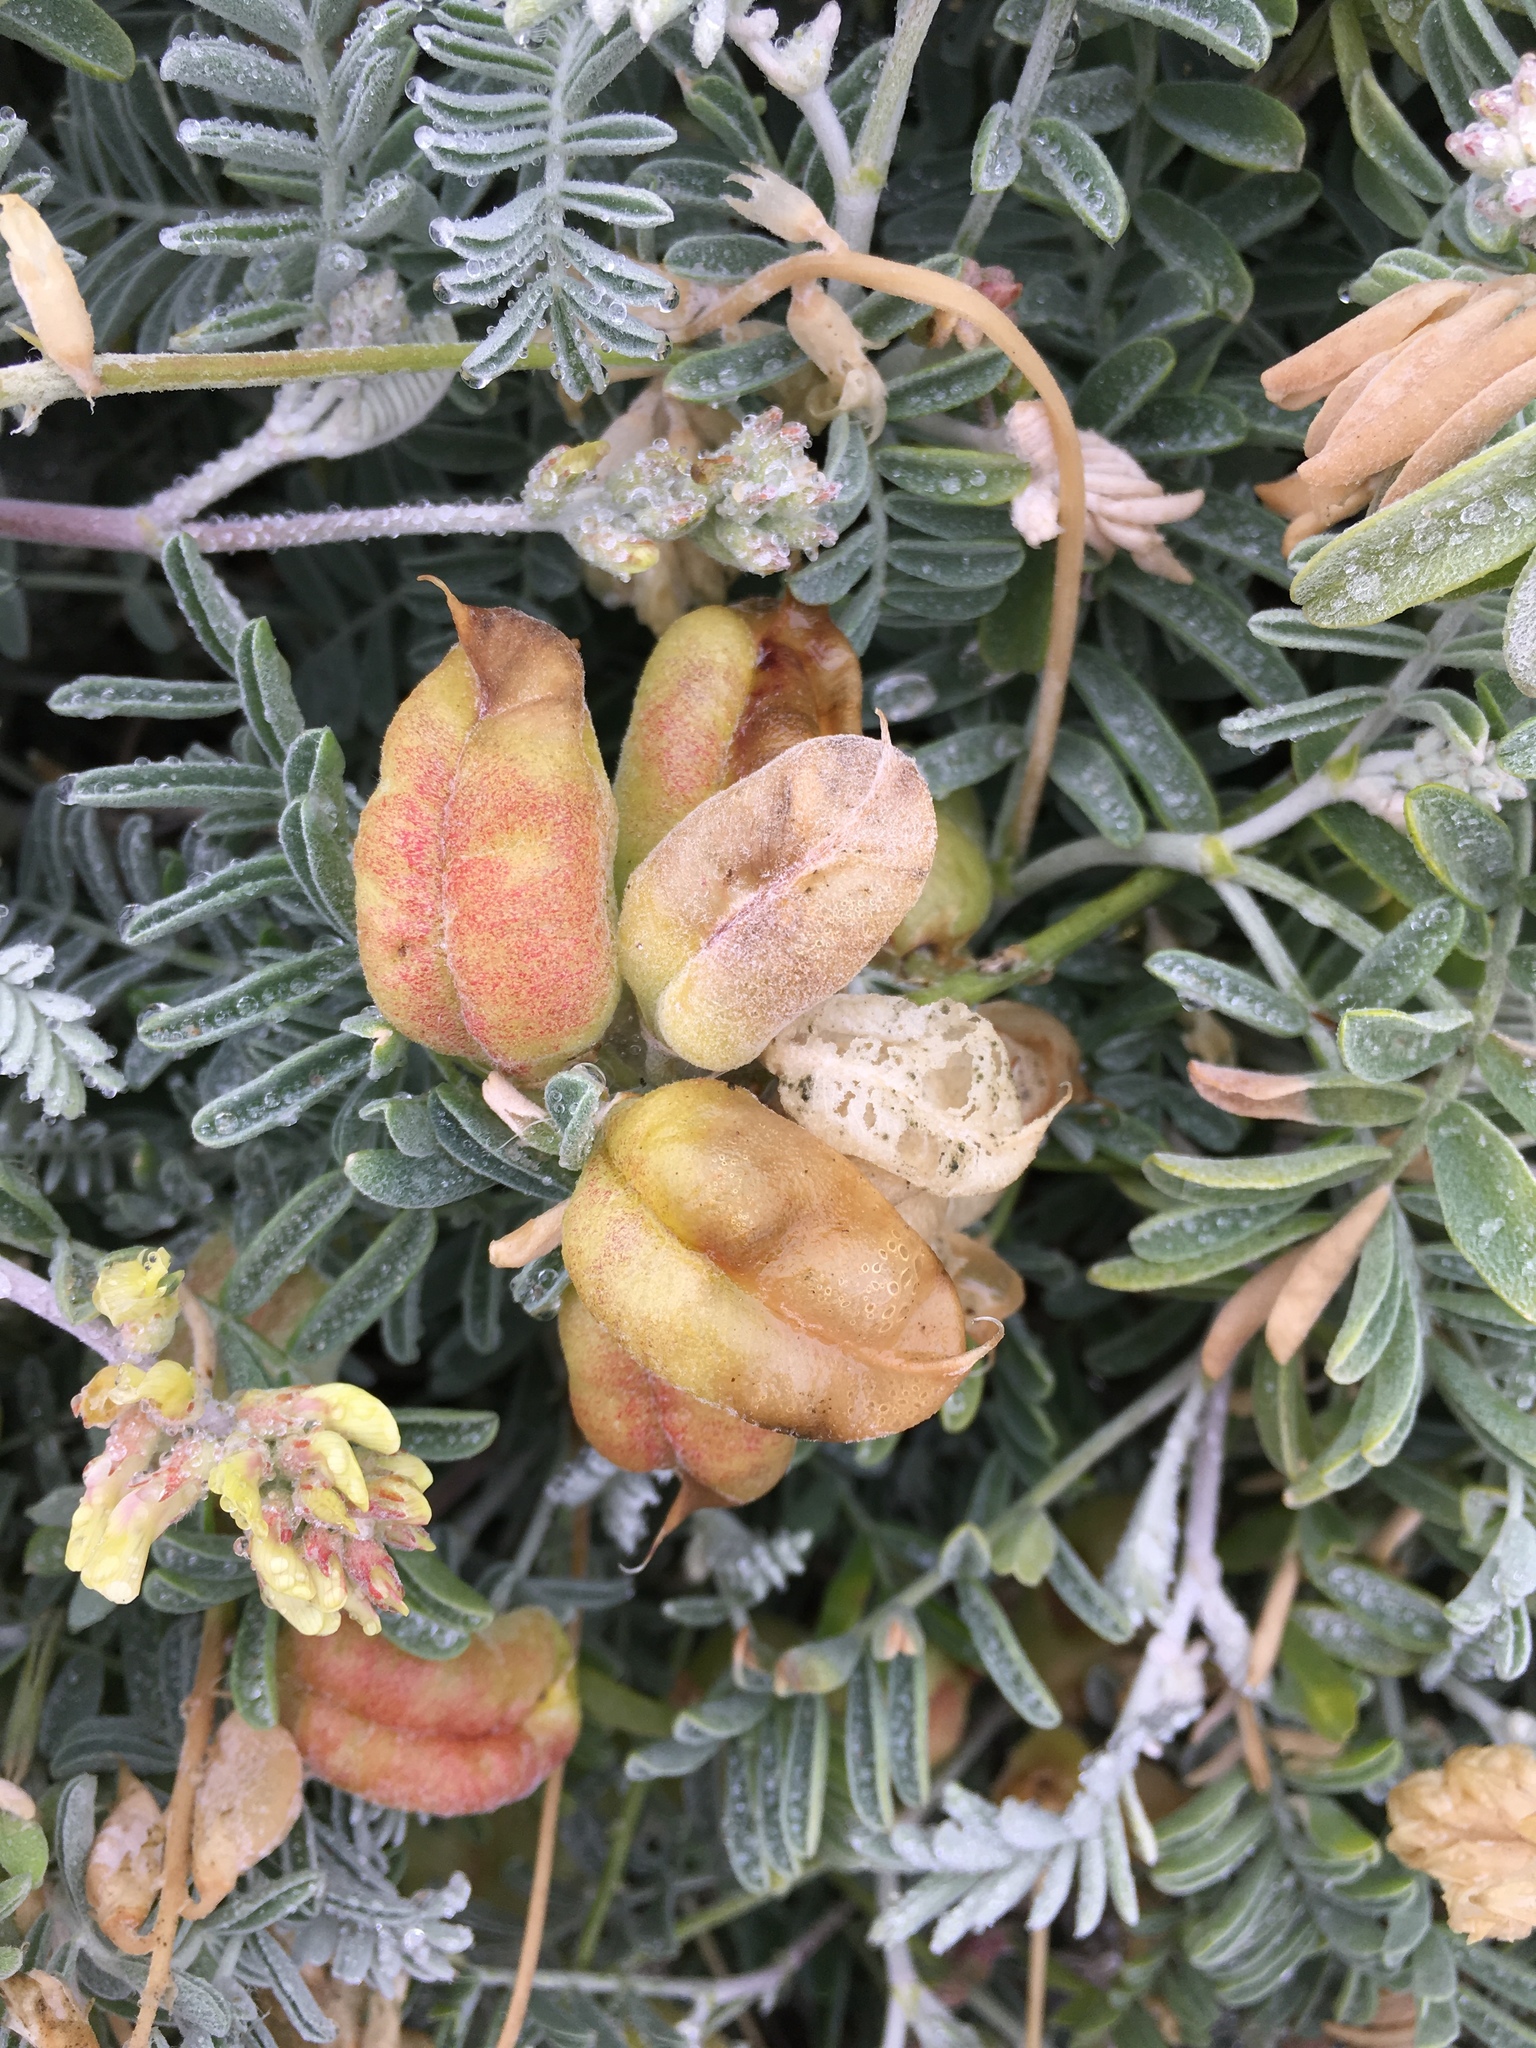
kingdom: Plantae
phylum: Tracheophyta
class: Magnoliopsida
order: Fabales
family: Fabaceae
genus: Astragalus
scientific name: Astragalus miguelensis
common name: San miguel milk-vetch
